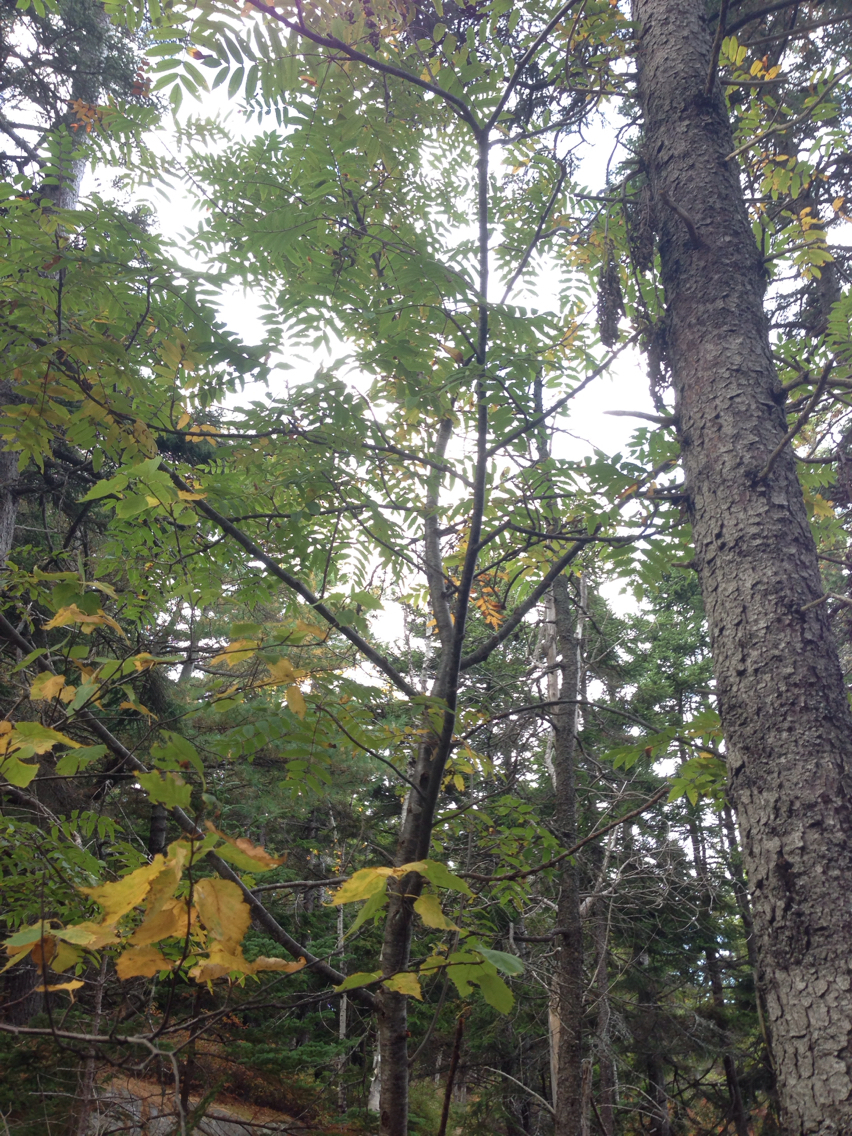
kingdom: Plantae
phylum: Tracheophyta
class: Magnoliopsida
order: Rosales
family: Rosaceae
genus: Sorbus
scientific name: Sorbus americana
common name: American mountain-ash
